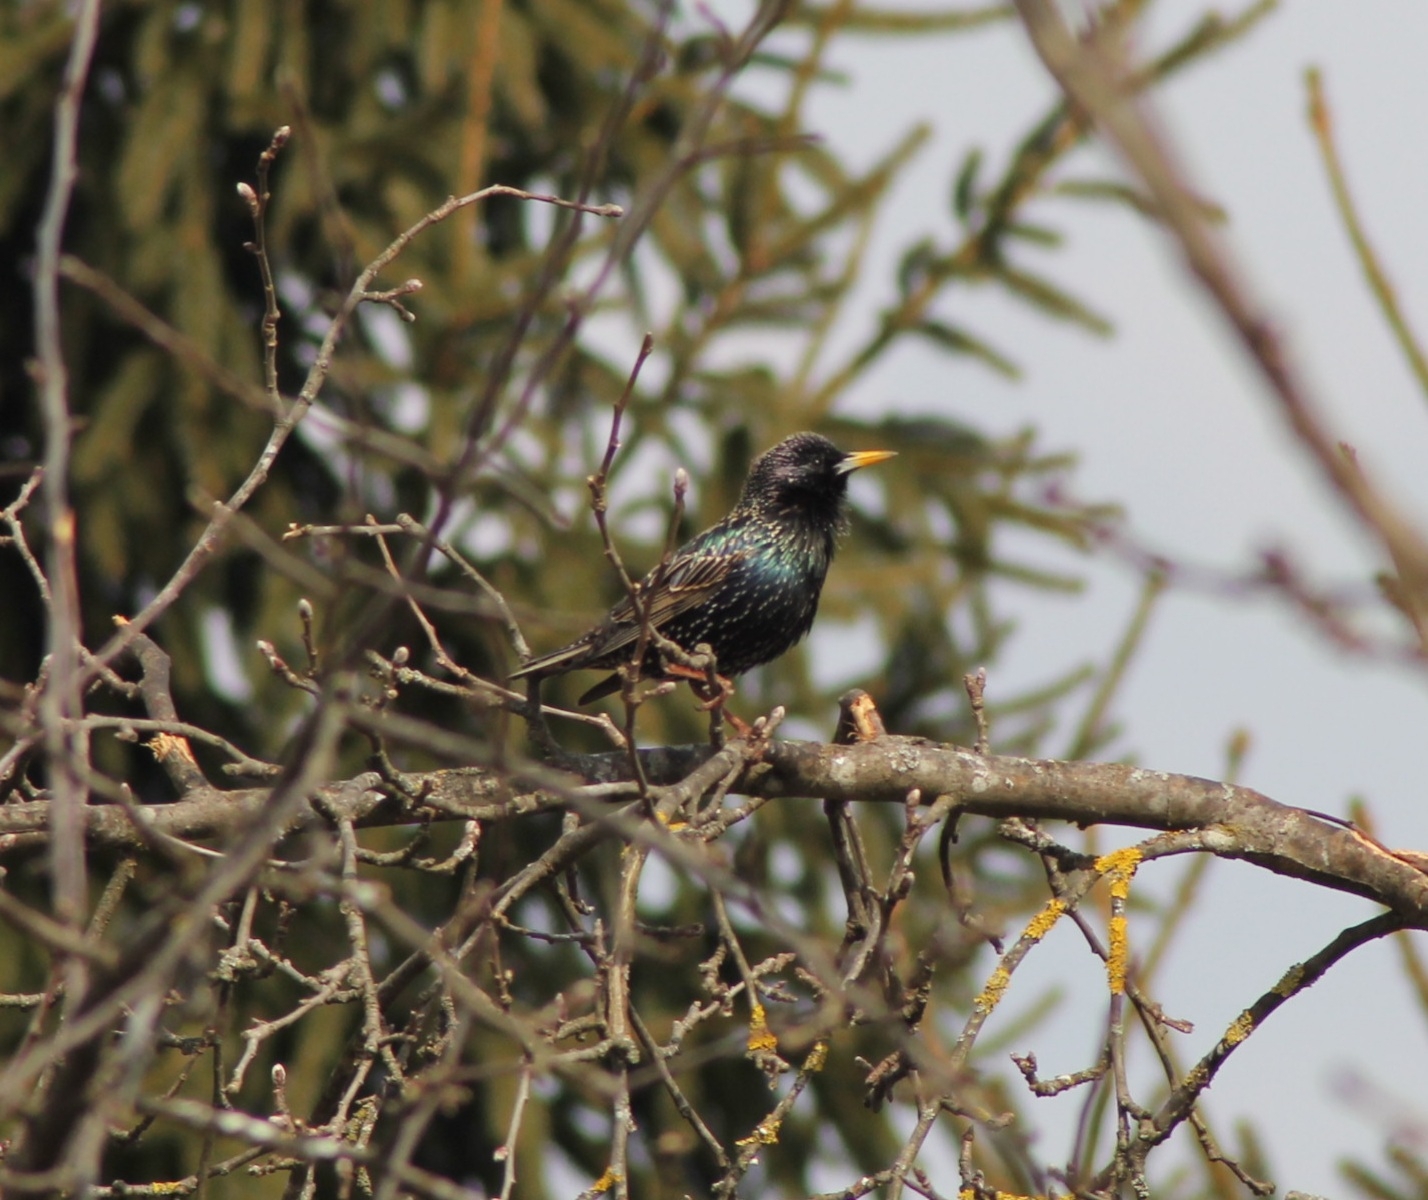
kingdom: Animalia
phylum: Chordata
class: Aves
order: Passeriformes
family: Sturnidae
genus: Sturnus
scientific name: Sturnus vulgaris
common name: Common starling
